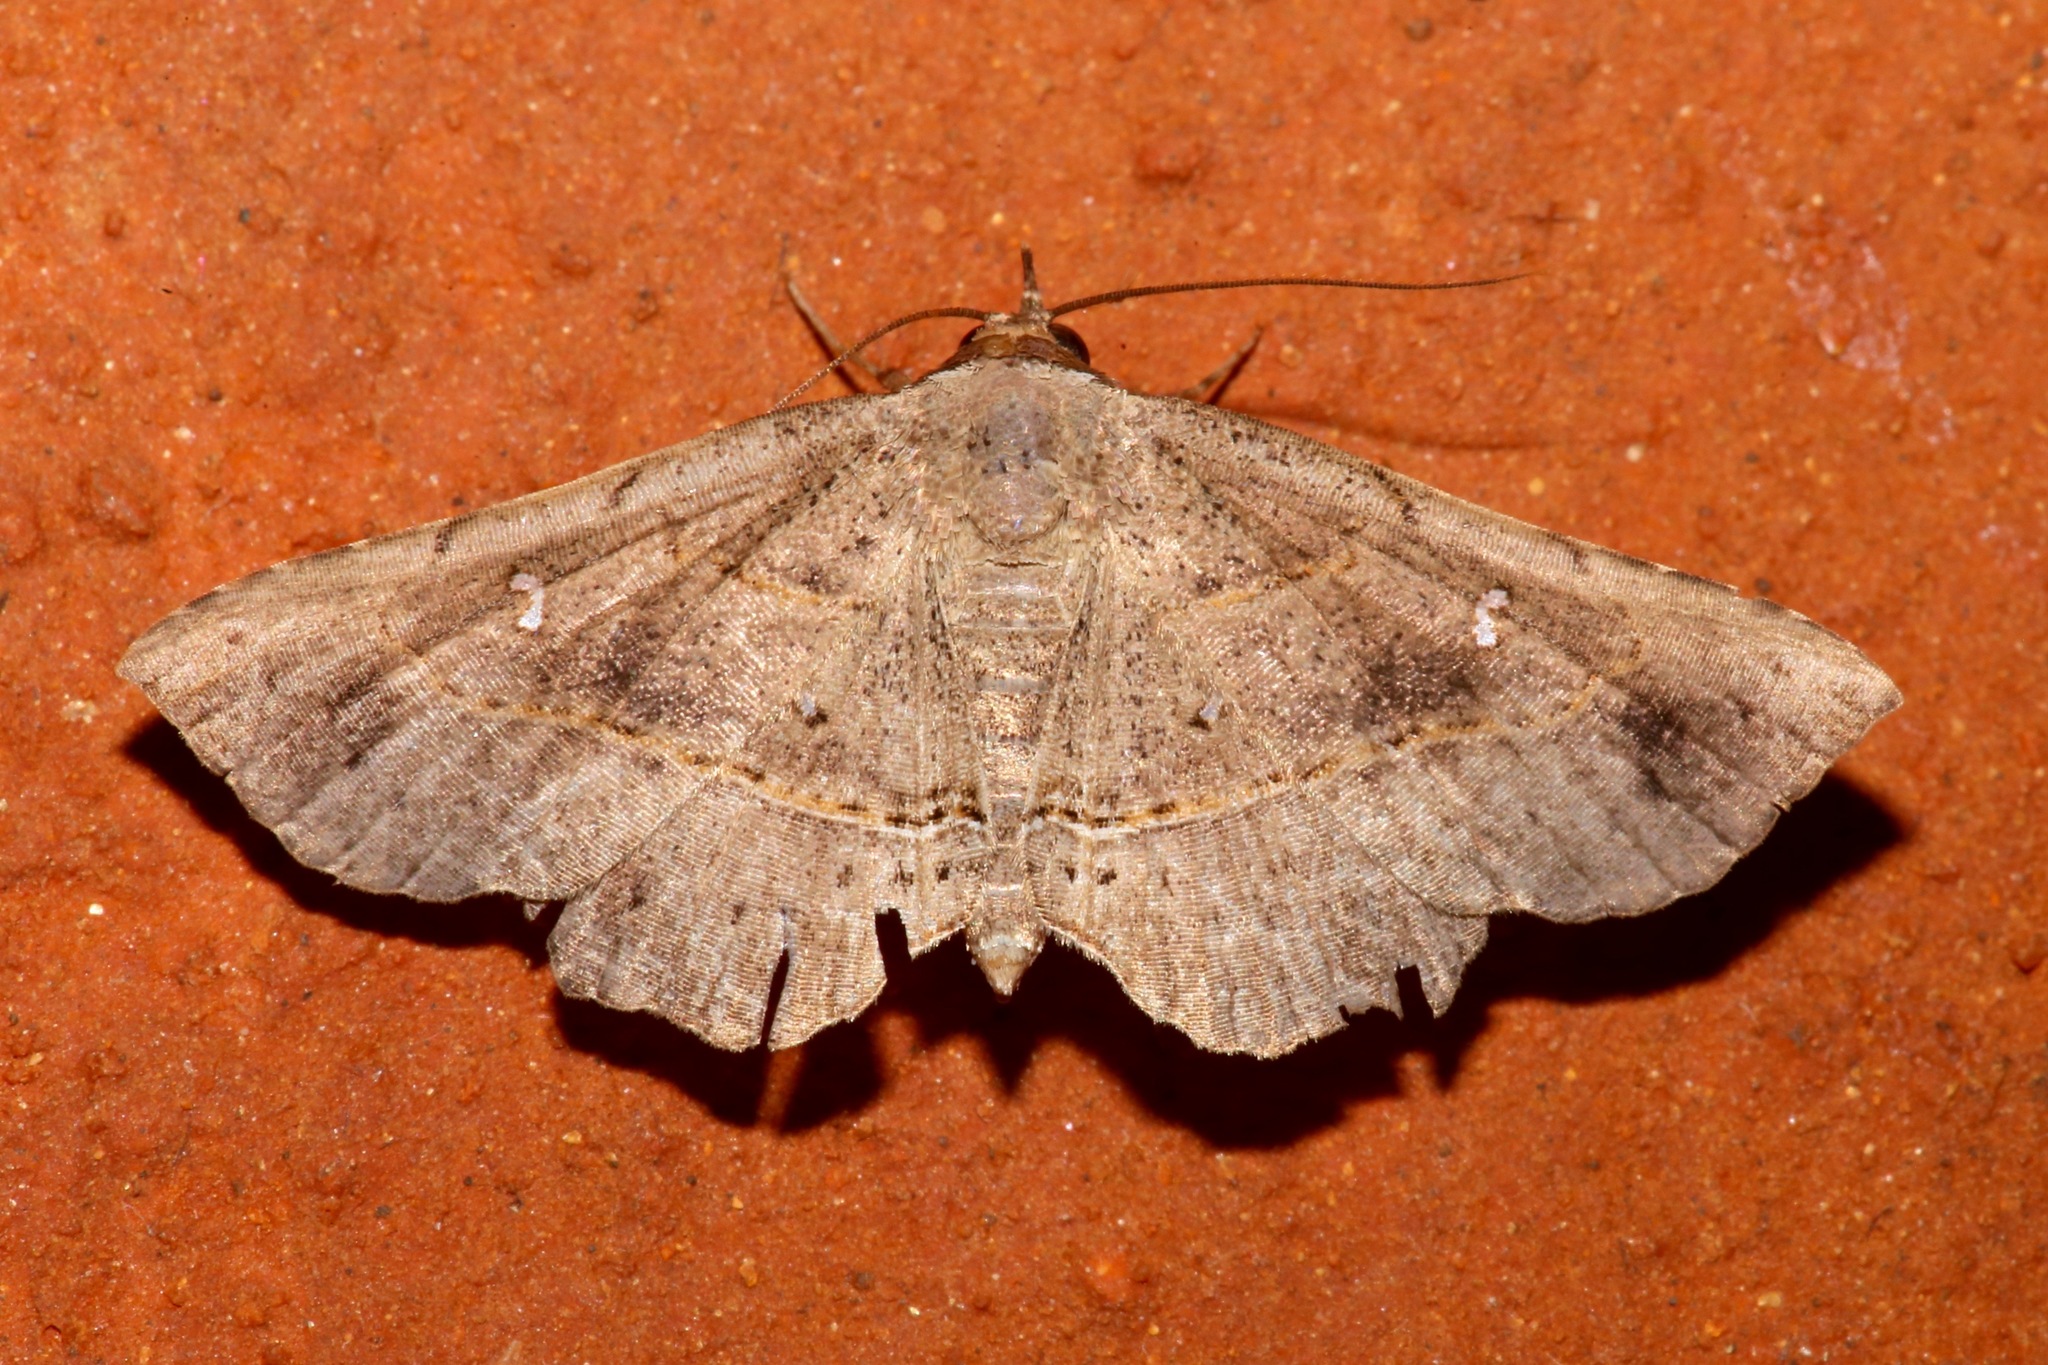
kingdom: Animalia
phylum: Arthropoda
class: Insecta
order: Lepidoptera
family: Erebidae
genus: Renodes
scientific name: Renodes curviluna
